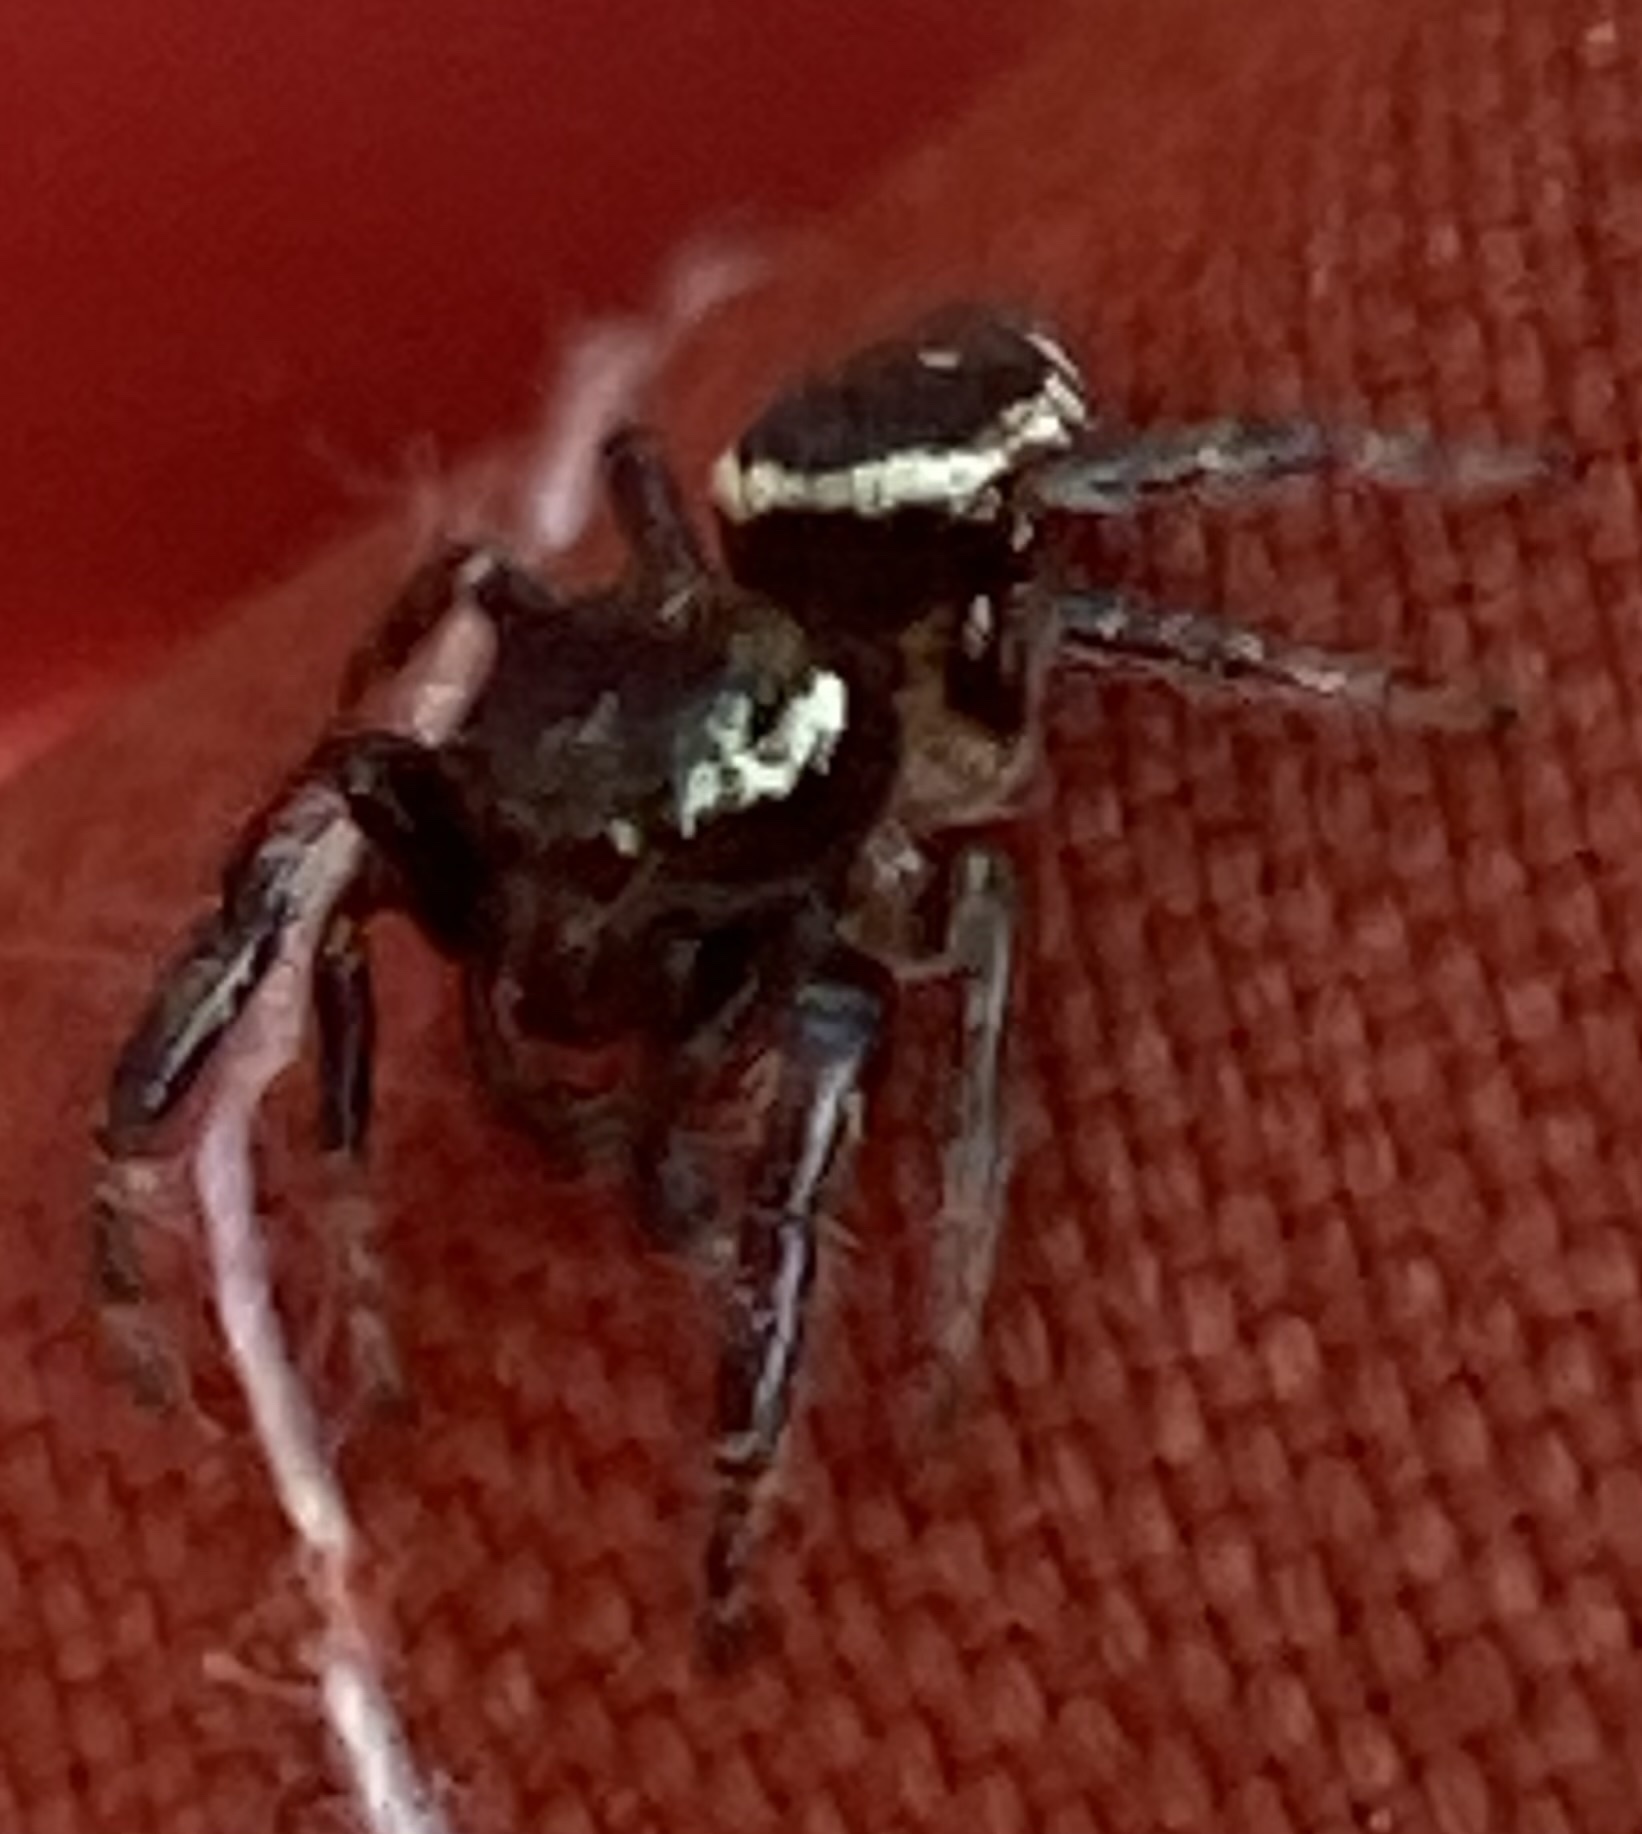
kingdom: Animalia
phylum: Arthropoda
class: Arachnida
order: Araneae
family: Salticidae
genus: Eris
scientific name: Eris militaris
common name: Bronze jumper
